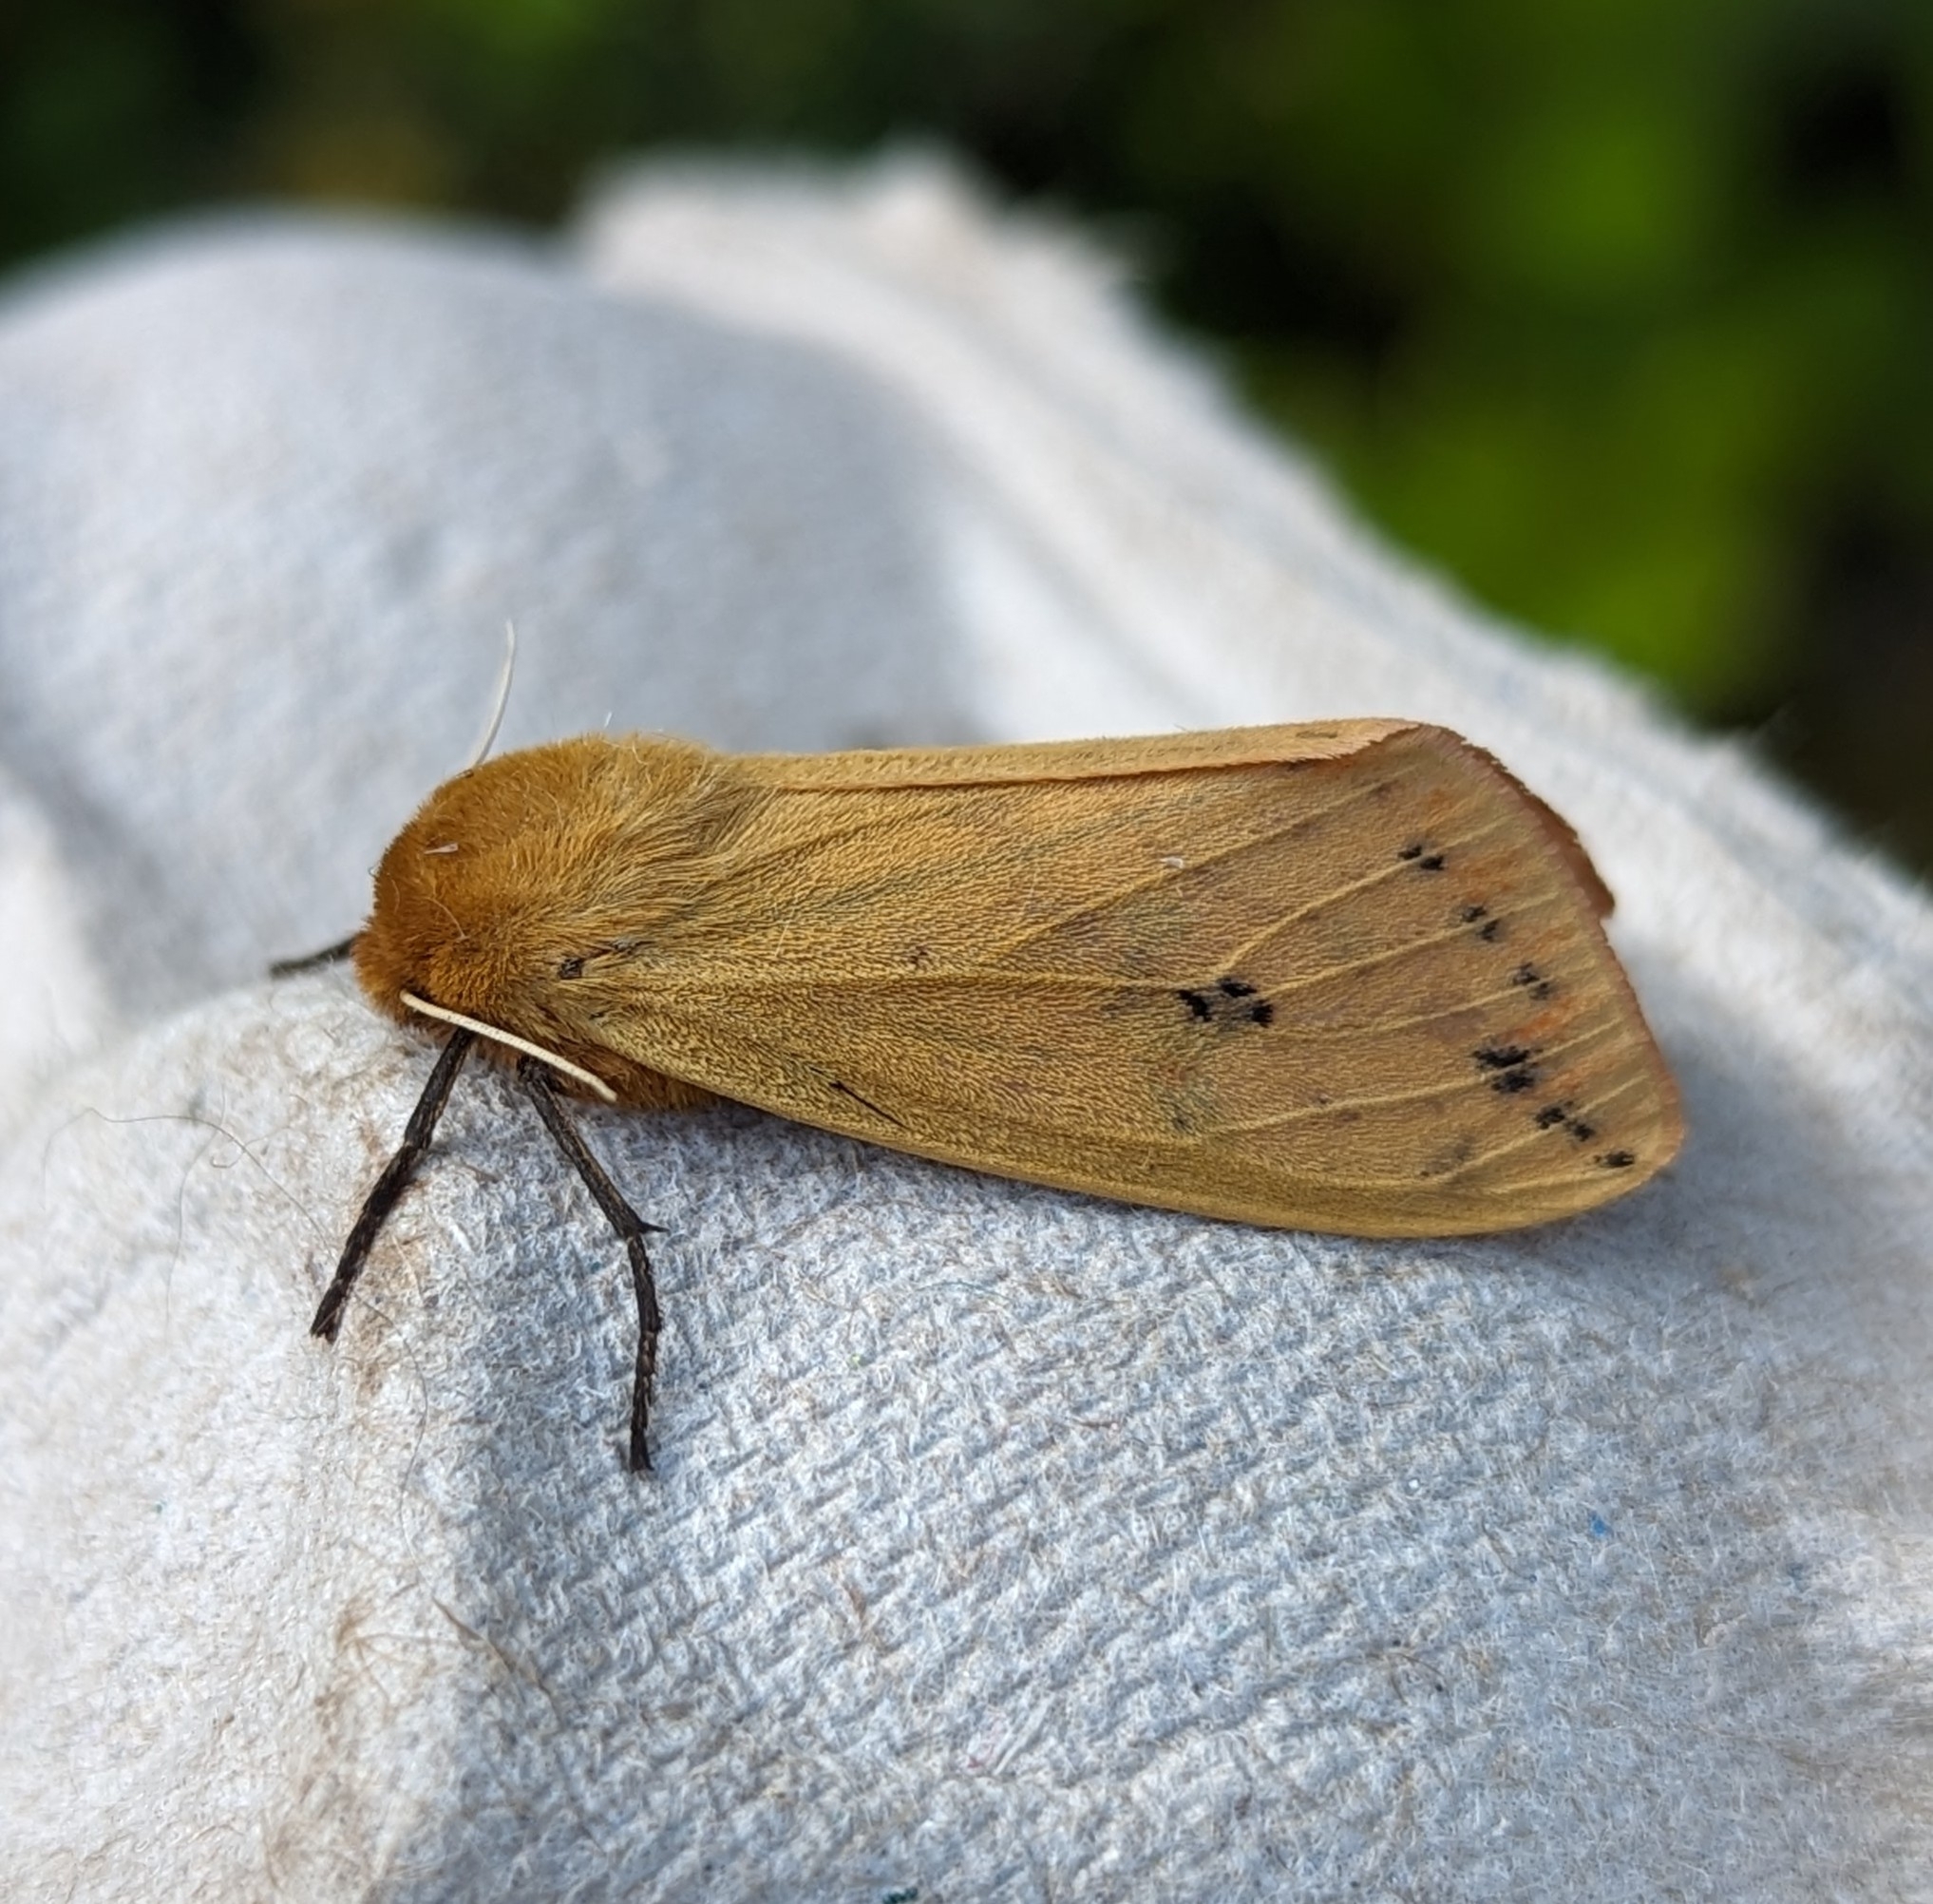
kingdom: Animalia
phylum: Arthropoda
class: Insecta
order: Lepidoptera
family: Erebidae
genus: Pyrrharctia
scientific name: Pyrrharctia isabella
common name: Isabella tiger moth
